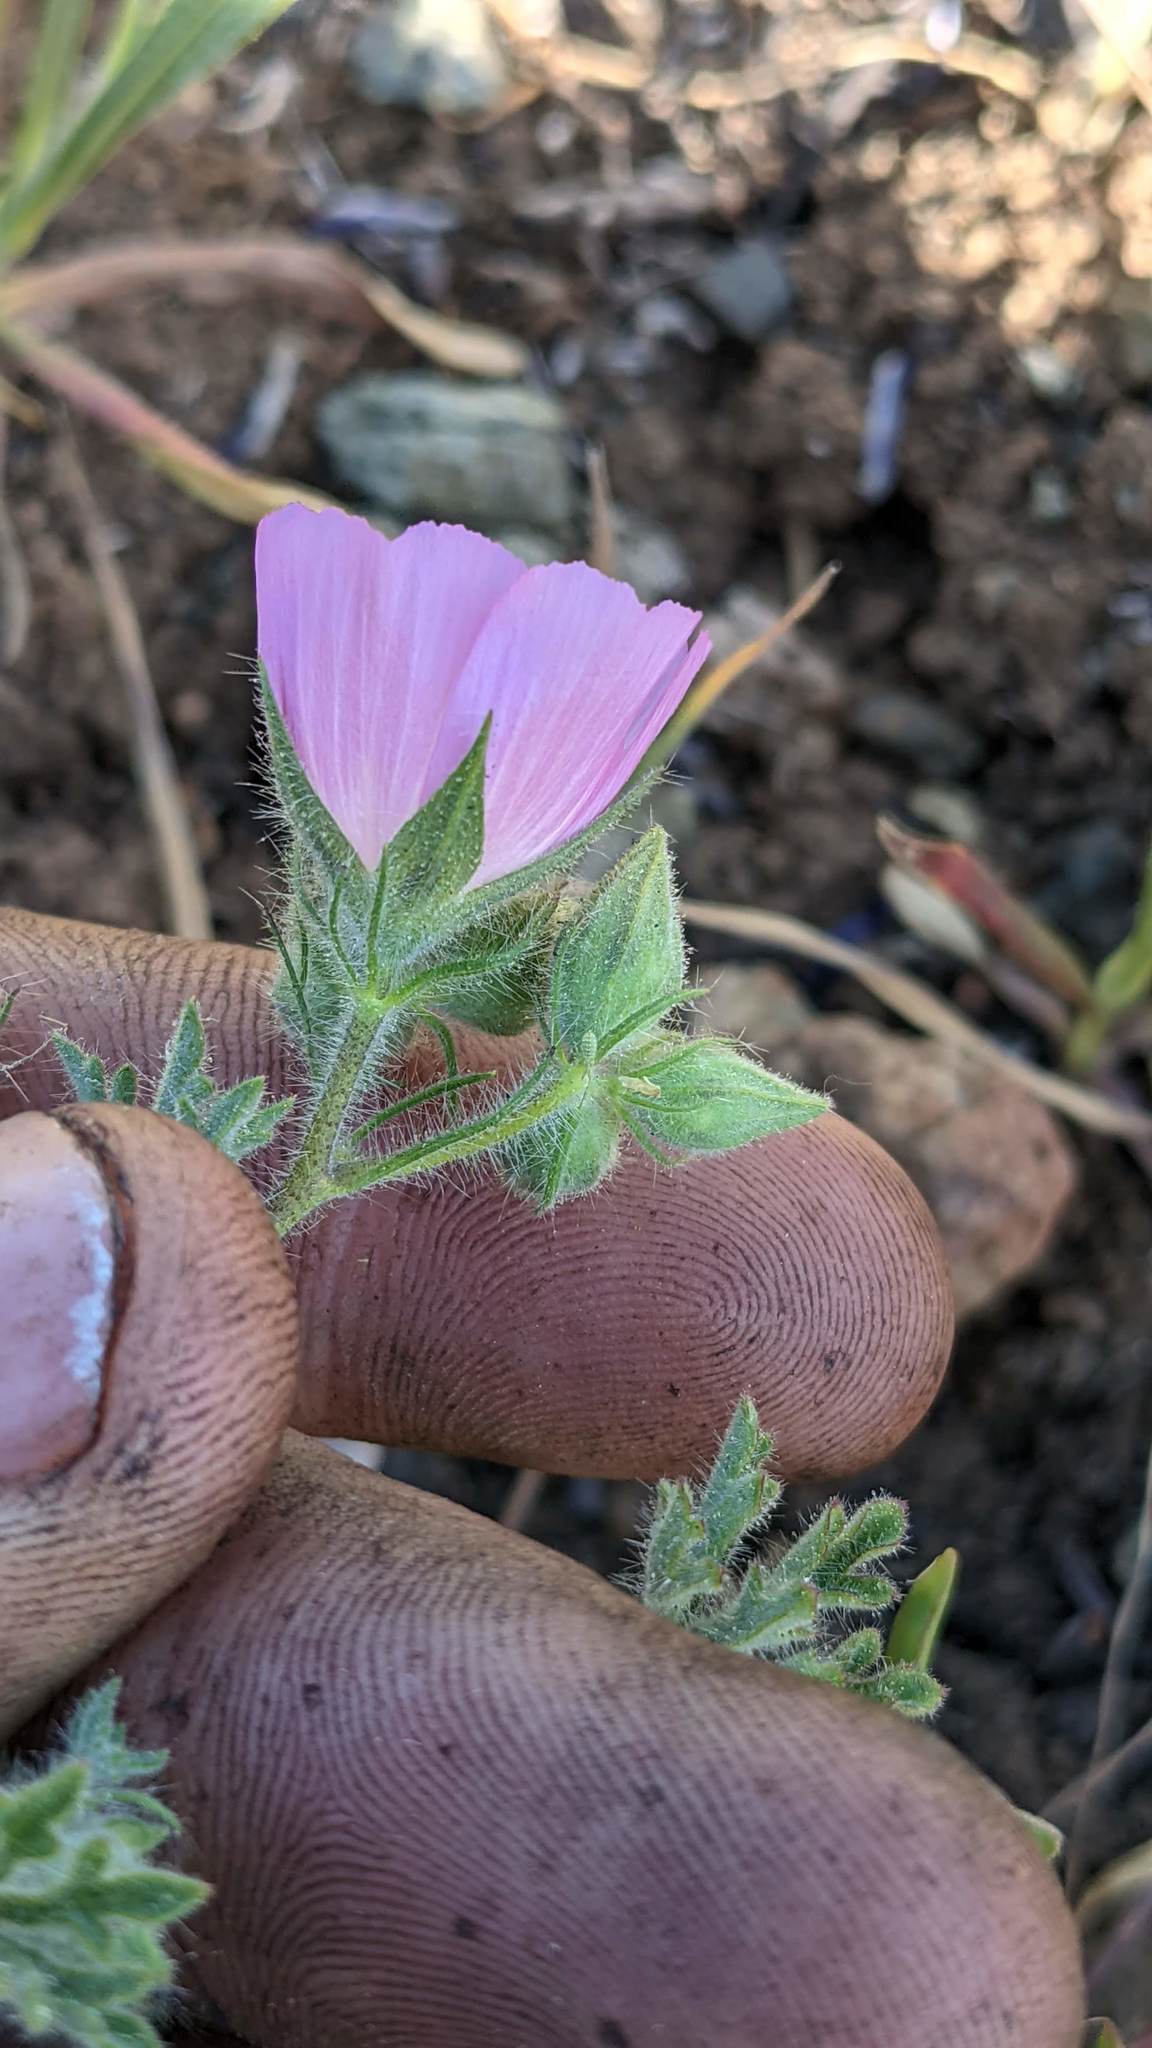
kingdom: Plantae
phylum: Tracheophyta
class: Magnoliopsida
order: Malvales
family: Malvaceae
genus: Sidalcea
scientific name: Sidalcea diploscypha
